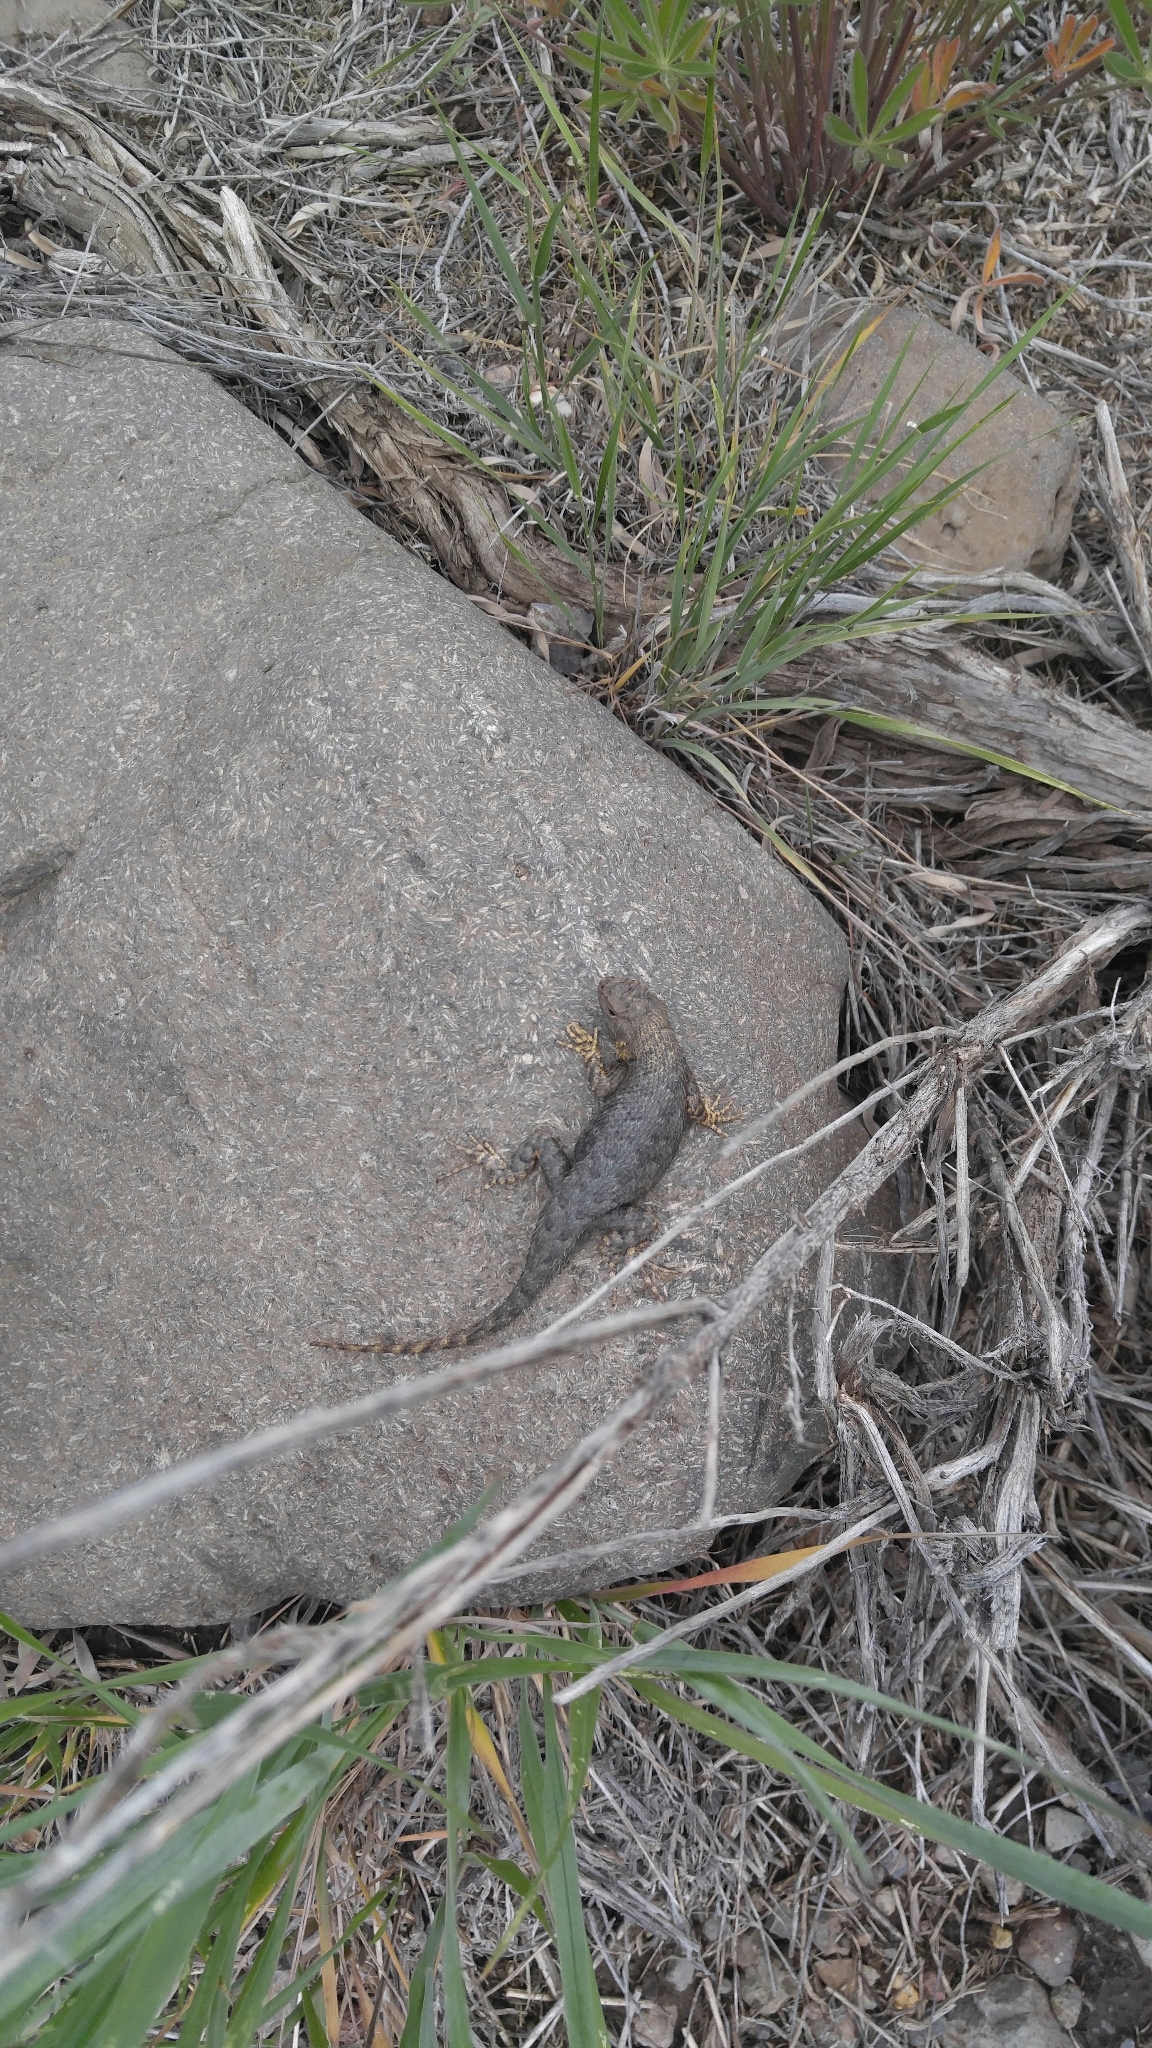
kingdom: Animalia
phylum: Chordata
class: Squamata
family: Phrynosomatidae
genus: Sceloporus
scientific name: Sceloporus occidentalis
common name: Western fence lizard
